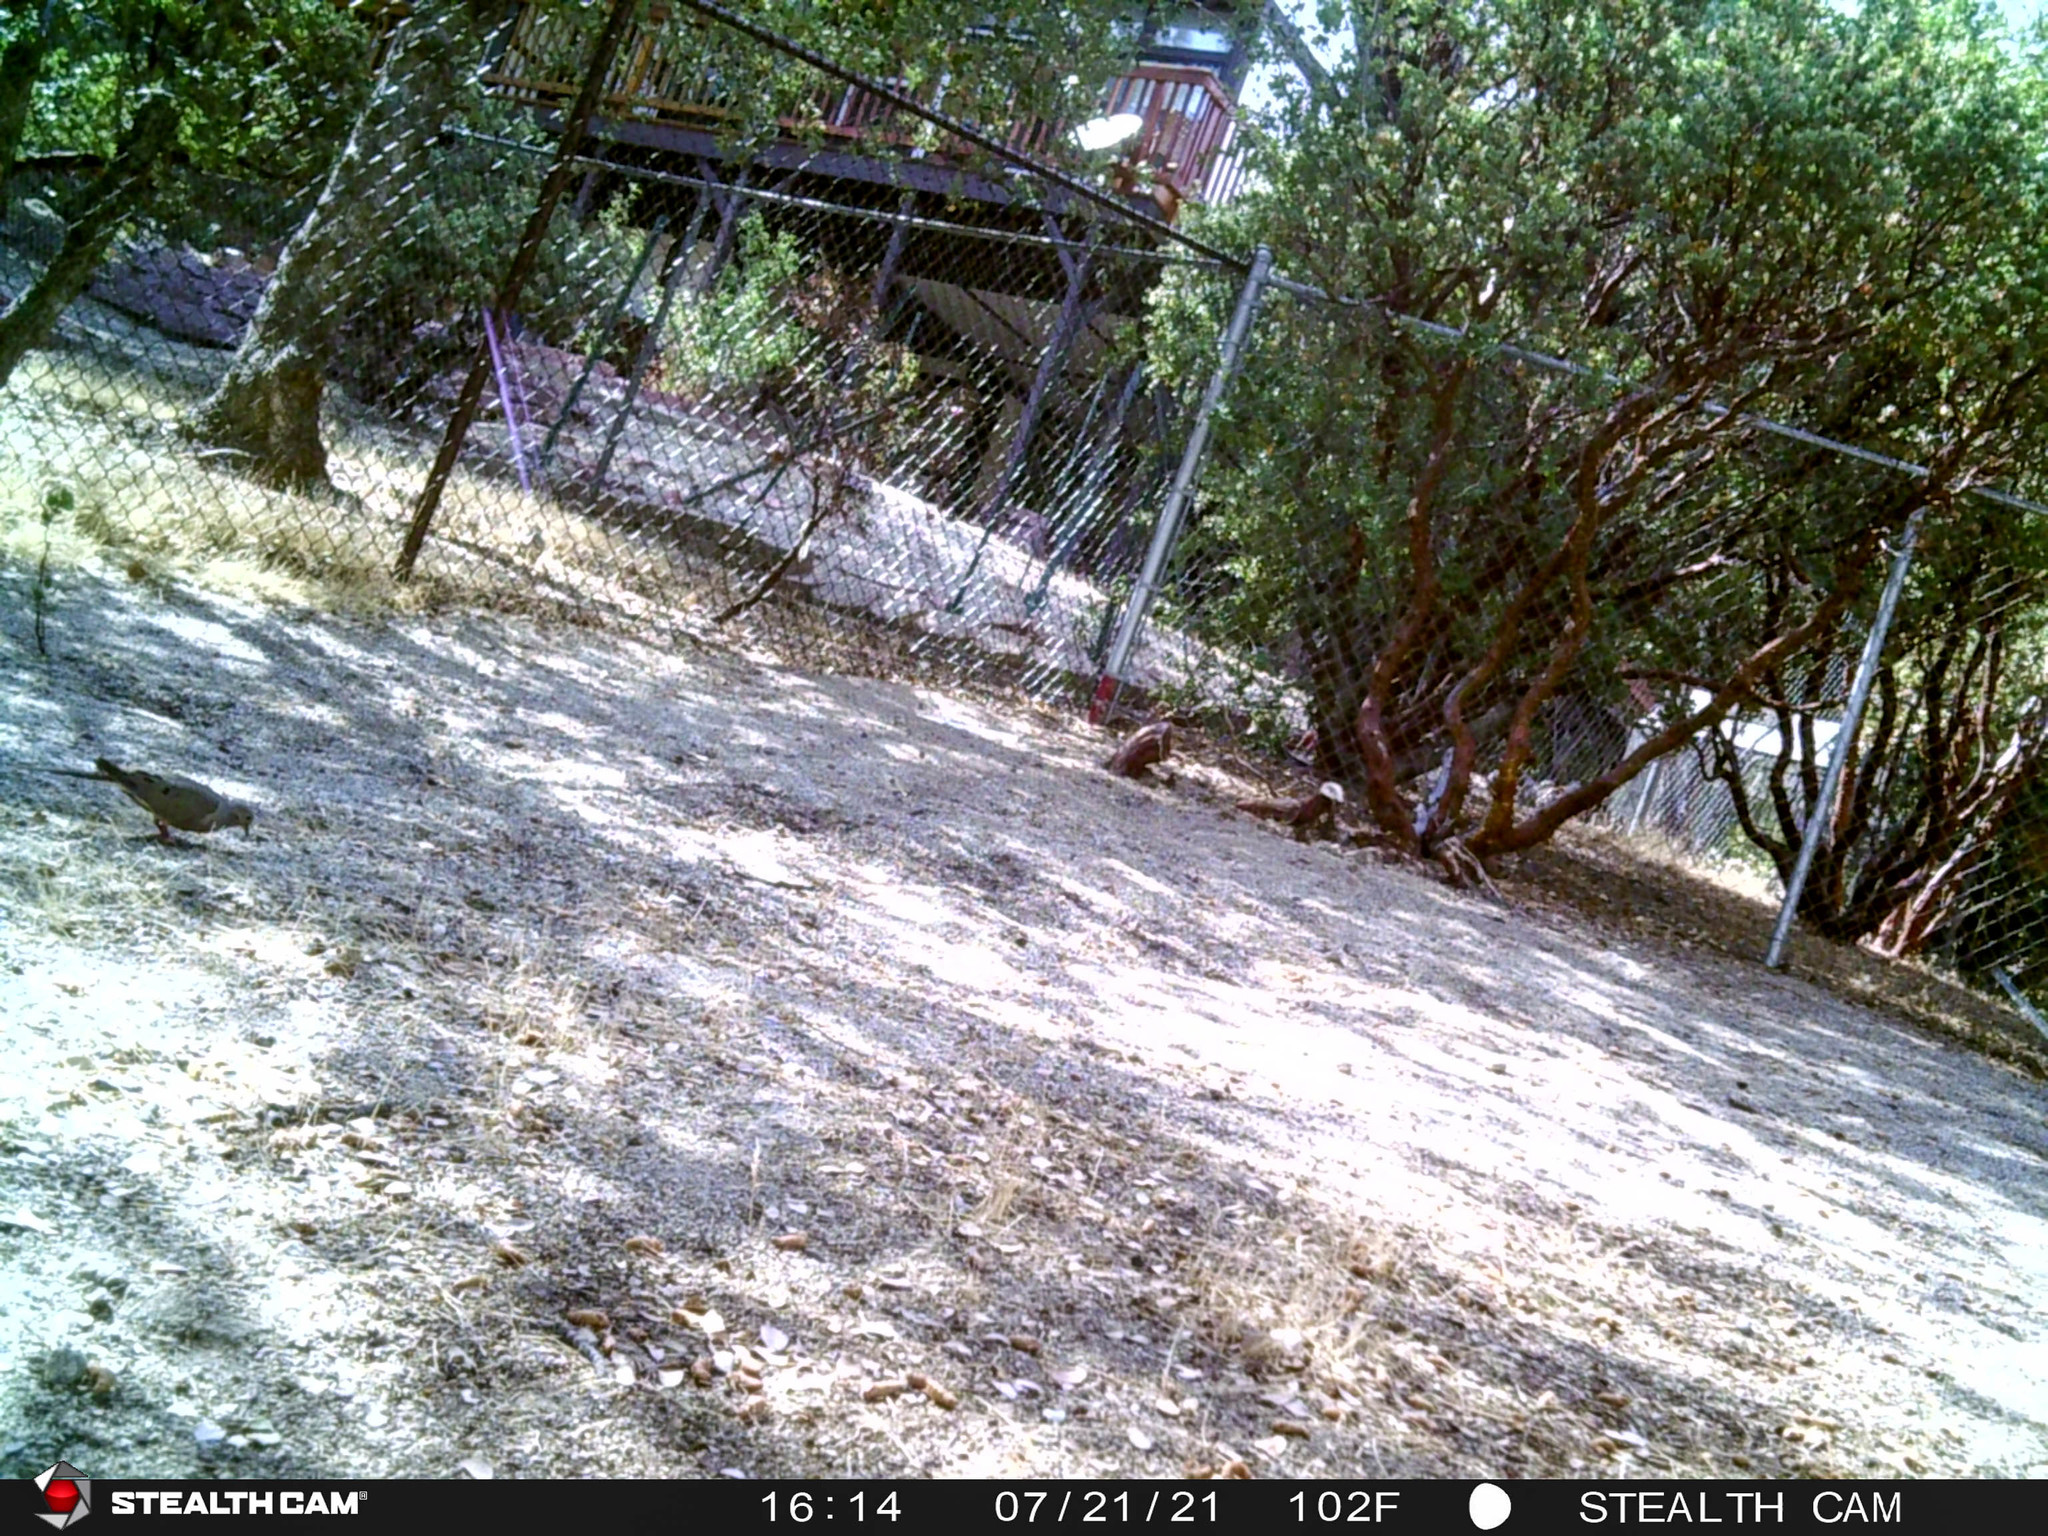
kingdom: Animalia
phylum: Chordata
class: Aves
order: Columbiformes
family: Columbidae
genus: Zenaida
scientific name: Zenaida macroura
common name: Mourning dove
